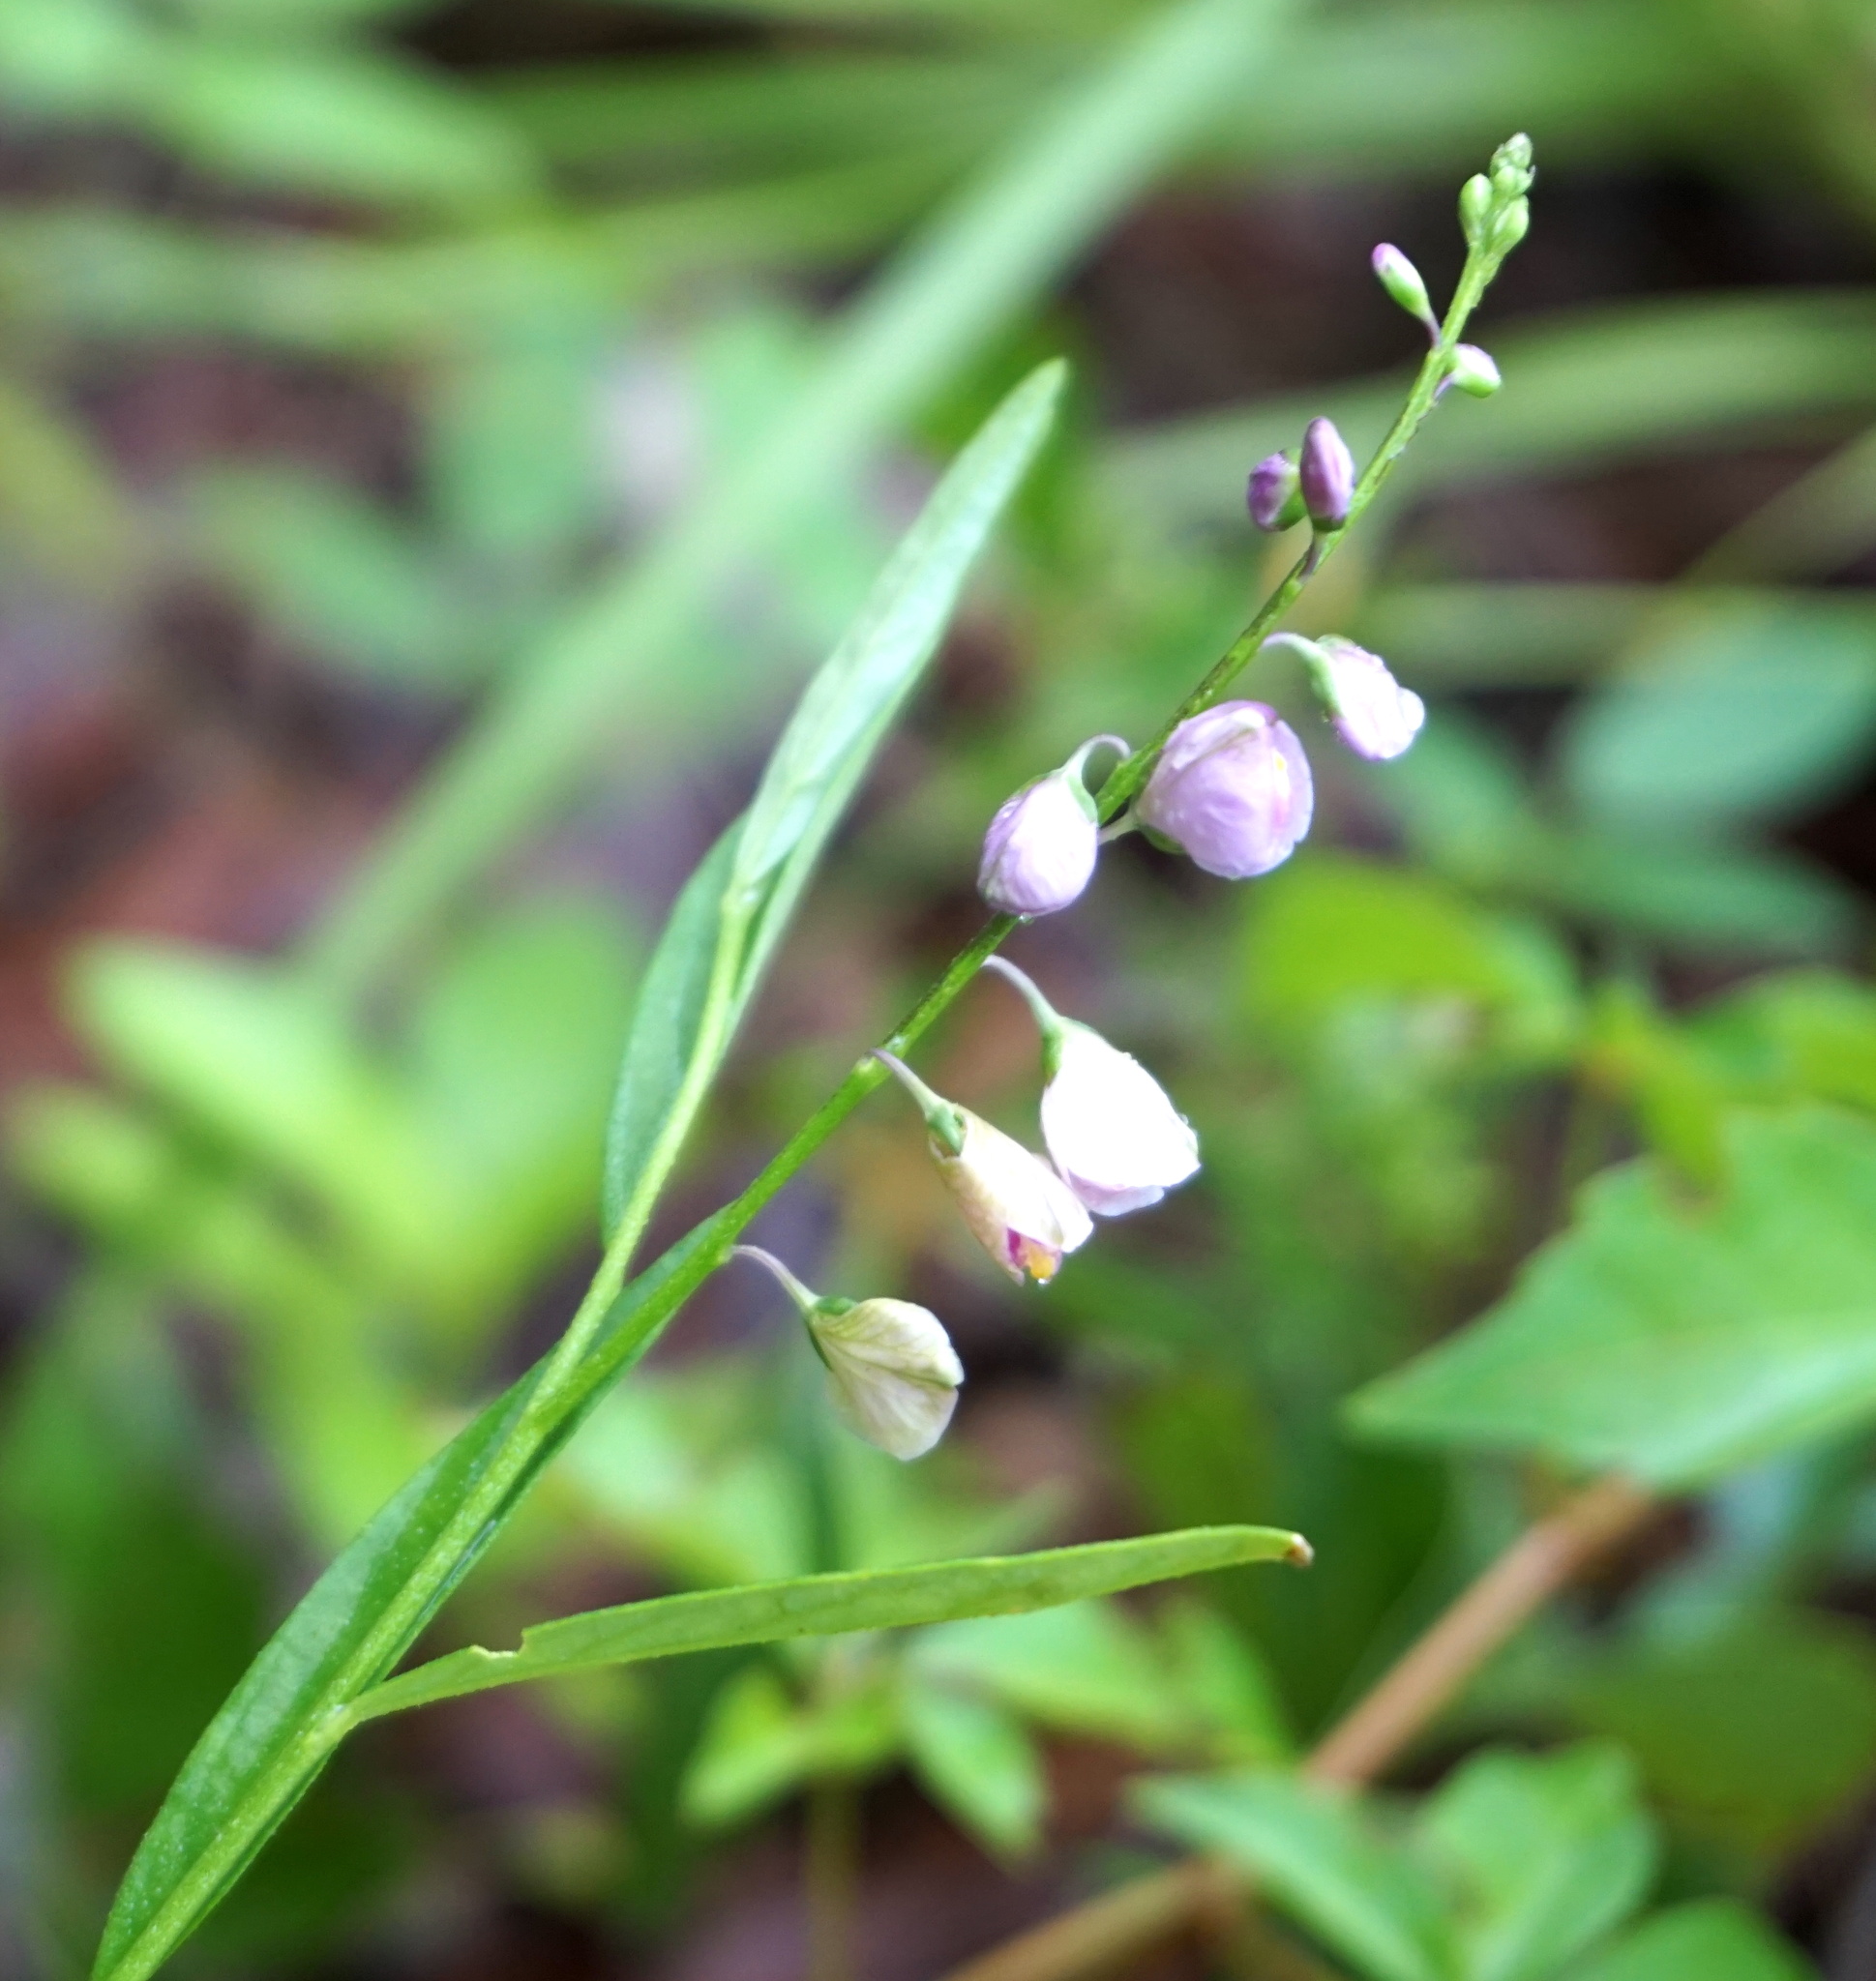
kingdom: Plantae
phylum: Tracheophyta
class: Magnoliopsida
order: Fabales
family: Polygalaceae
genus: Asemeia
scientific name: Asemeia grandiflora
